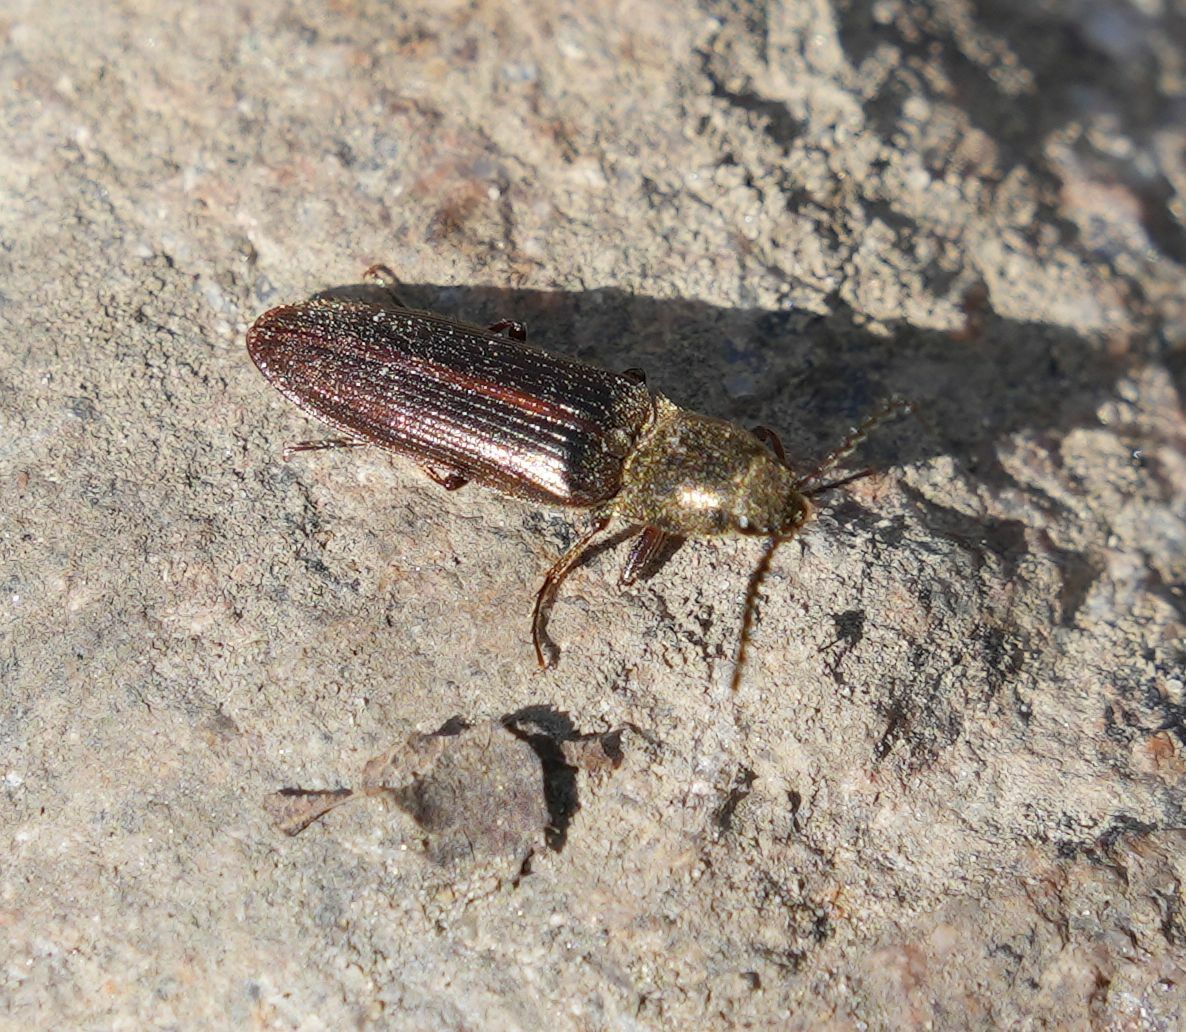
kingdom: Animalia
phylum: Arthropoda
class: Insecta
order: Coleoptera
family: Elateridae
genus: Sylvanelater
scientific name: Sylvanelater cylindriformis
